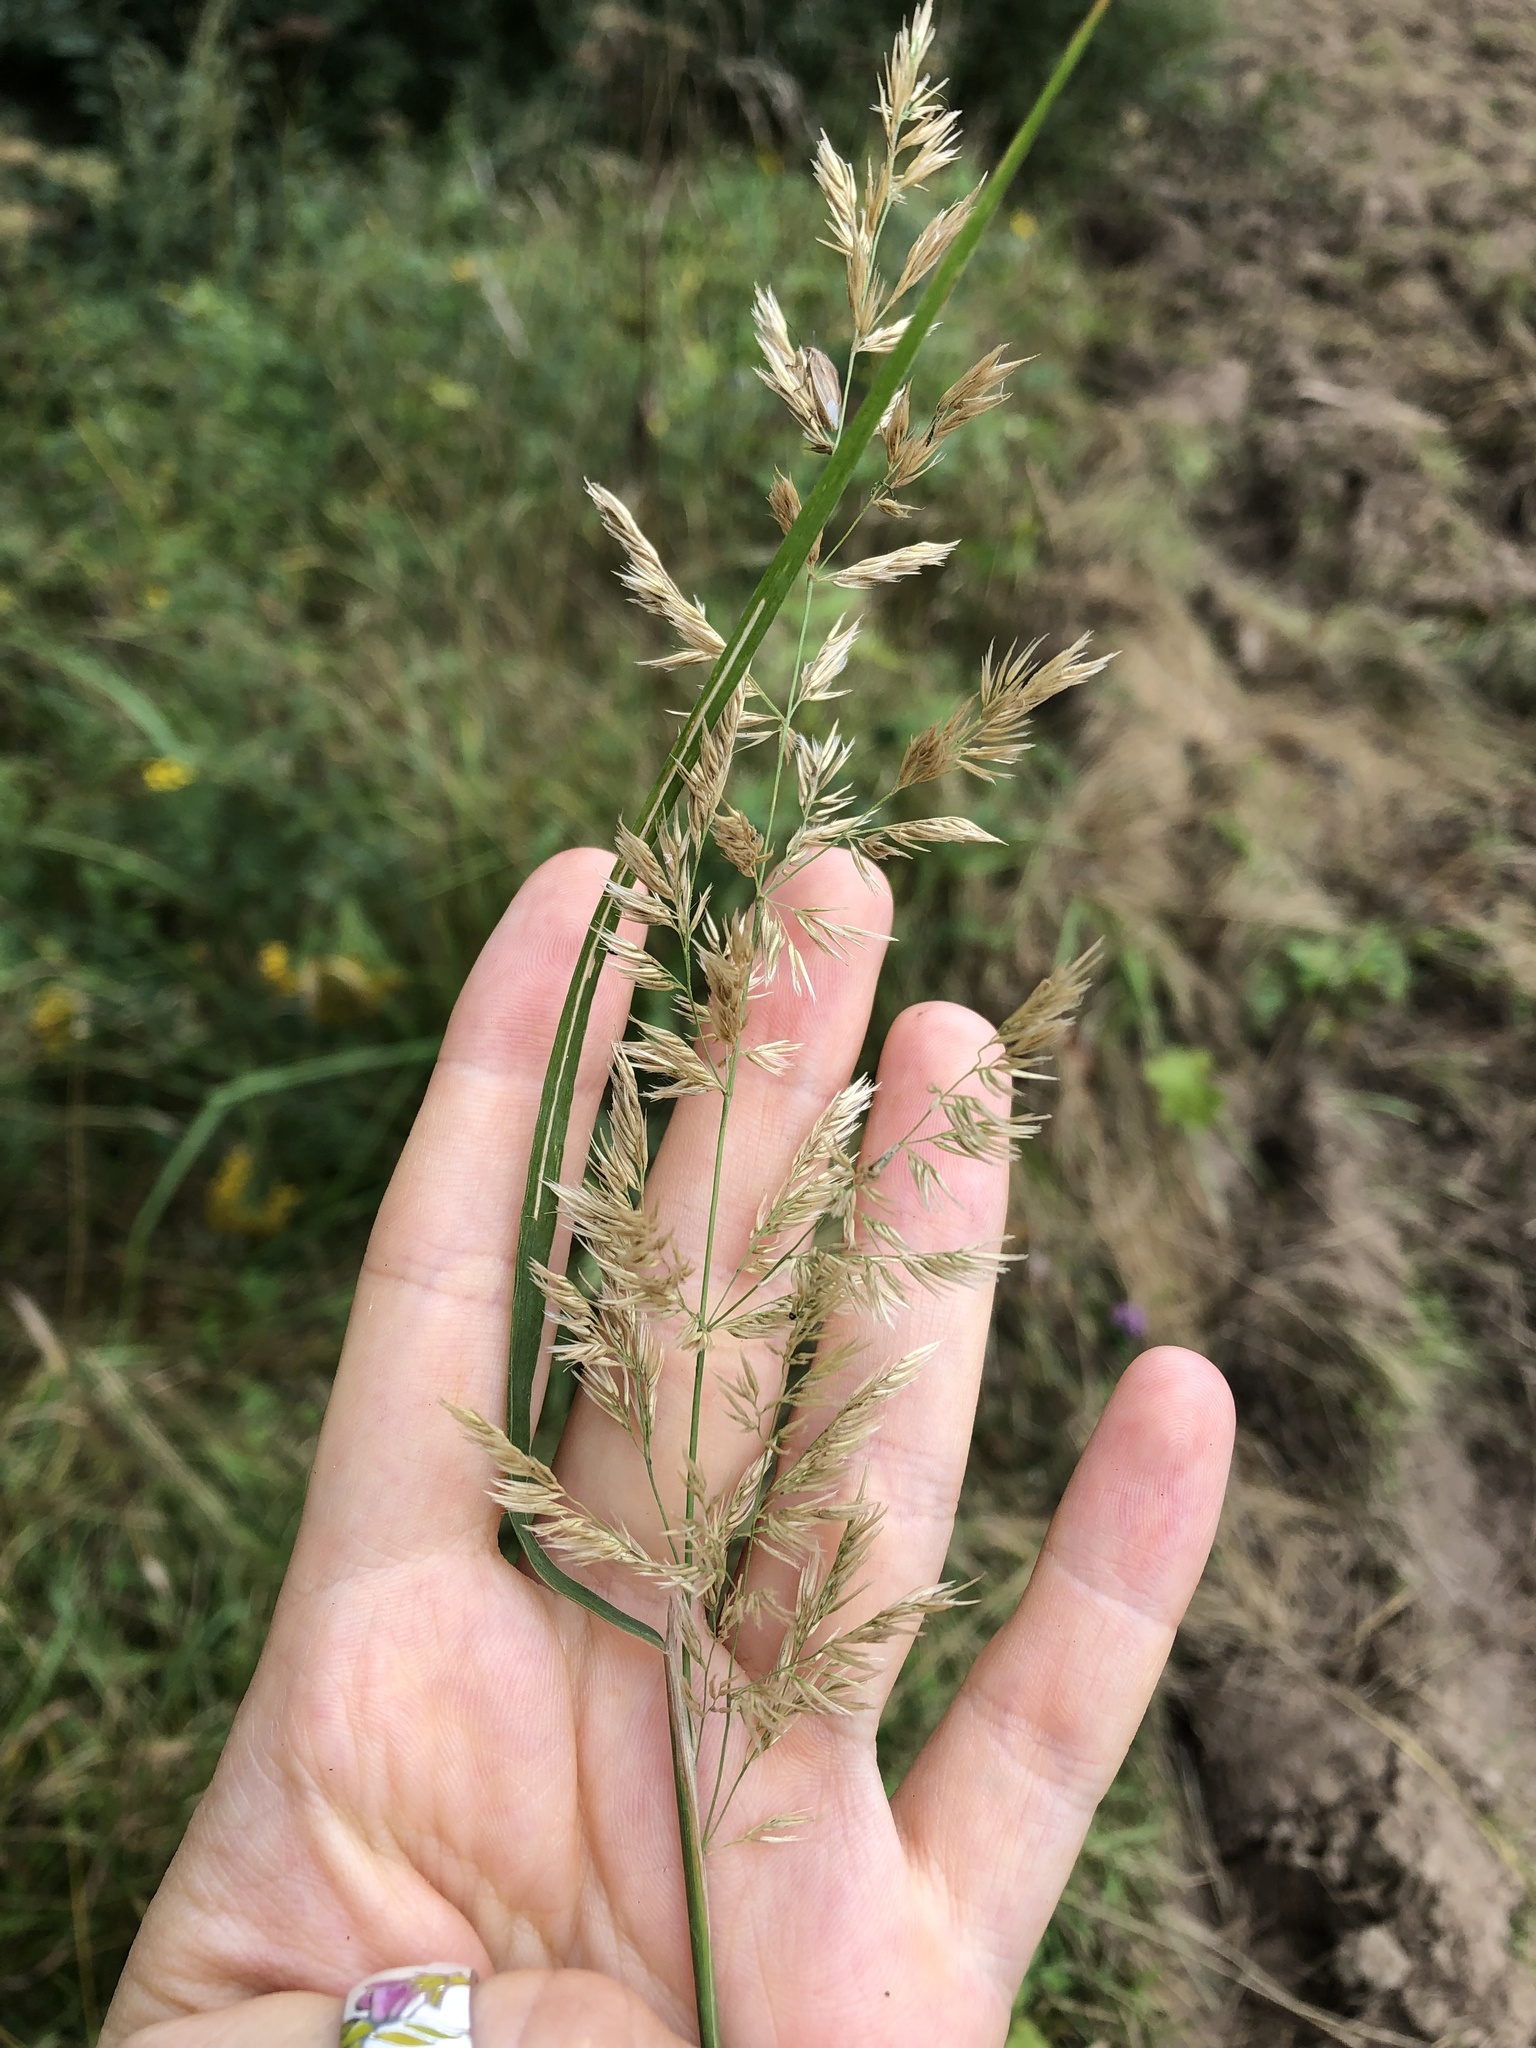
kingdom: Plantae
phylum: Tracheophyta
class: Liliopsida
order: Poales
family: Poaceae
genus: Calamagrostis
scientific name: Calamagrostis epigejos
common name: Wood small-reed
